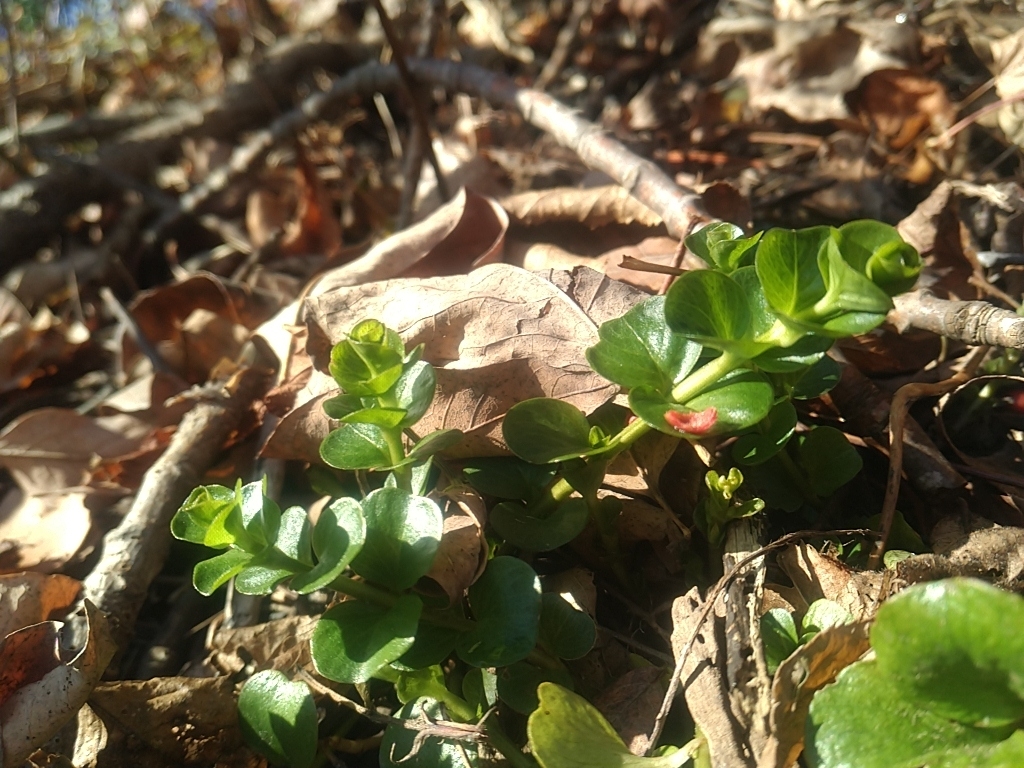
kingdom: Plantae
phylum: Tracheophyta
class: Magnoliopsida
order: Ericales
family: Primulaceae
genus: Lysimachia
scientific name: Lysimachia nummularia
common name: Moneywort
